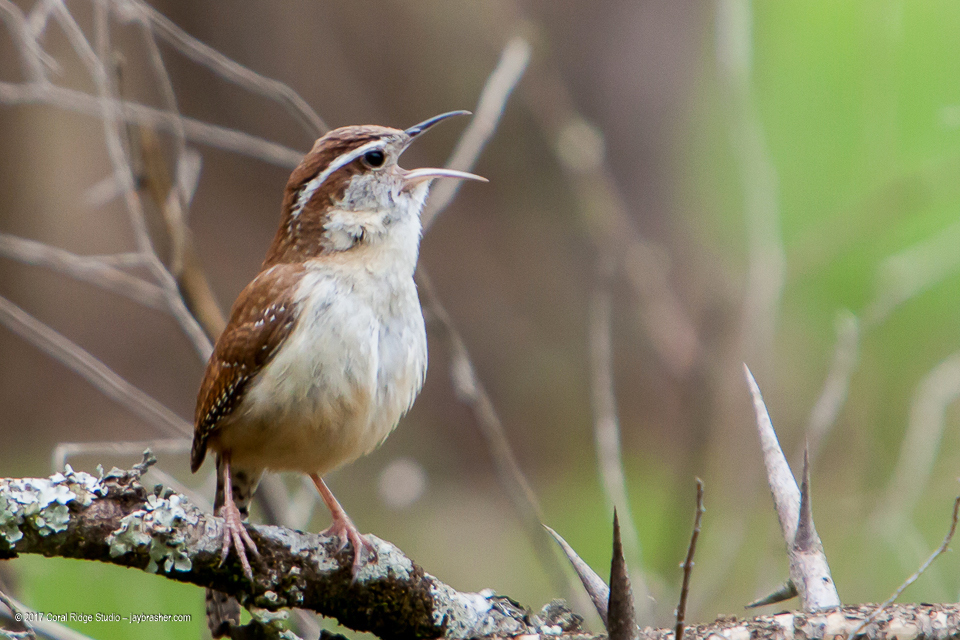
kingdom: Animalia
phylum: Chordata
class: Aves
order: Passeriformes
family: Troglodytidae
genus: Thryothorus
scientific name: Thryothorus ludovicianus
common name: Carolina wren
